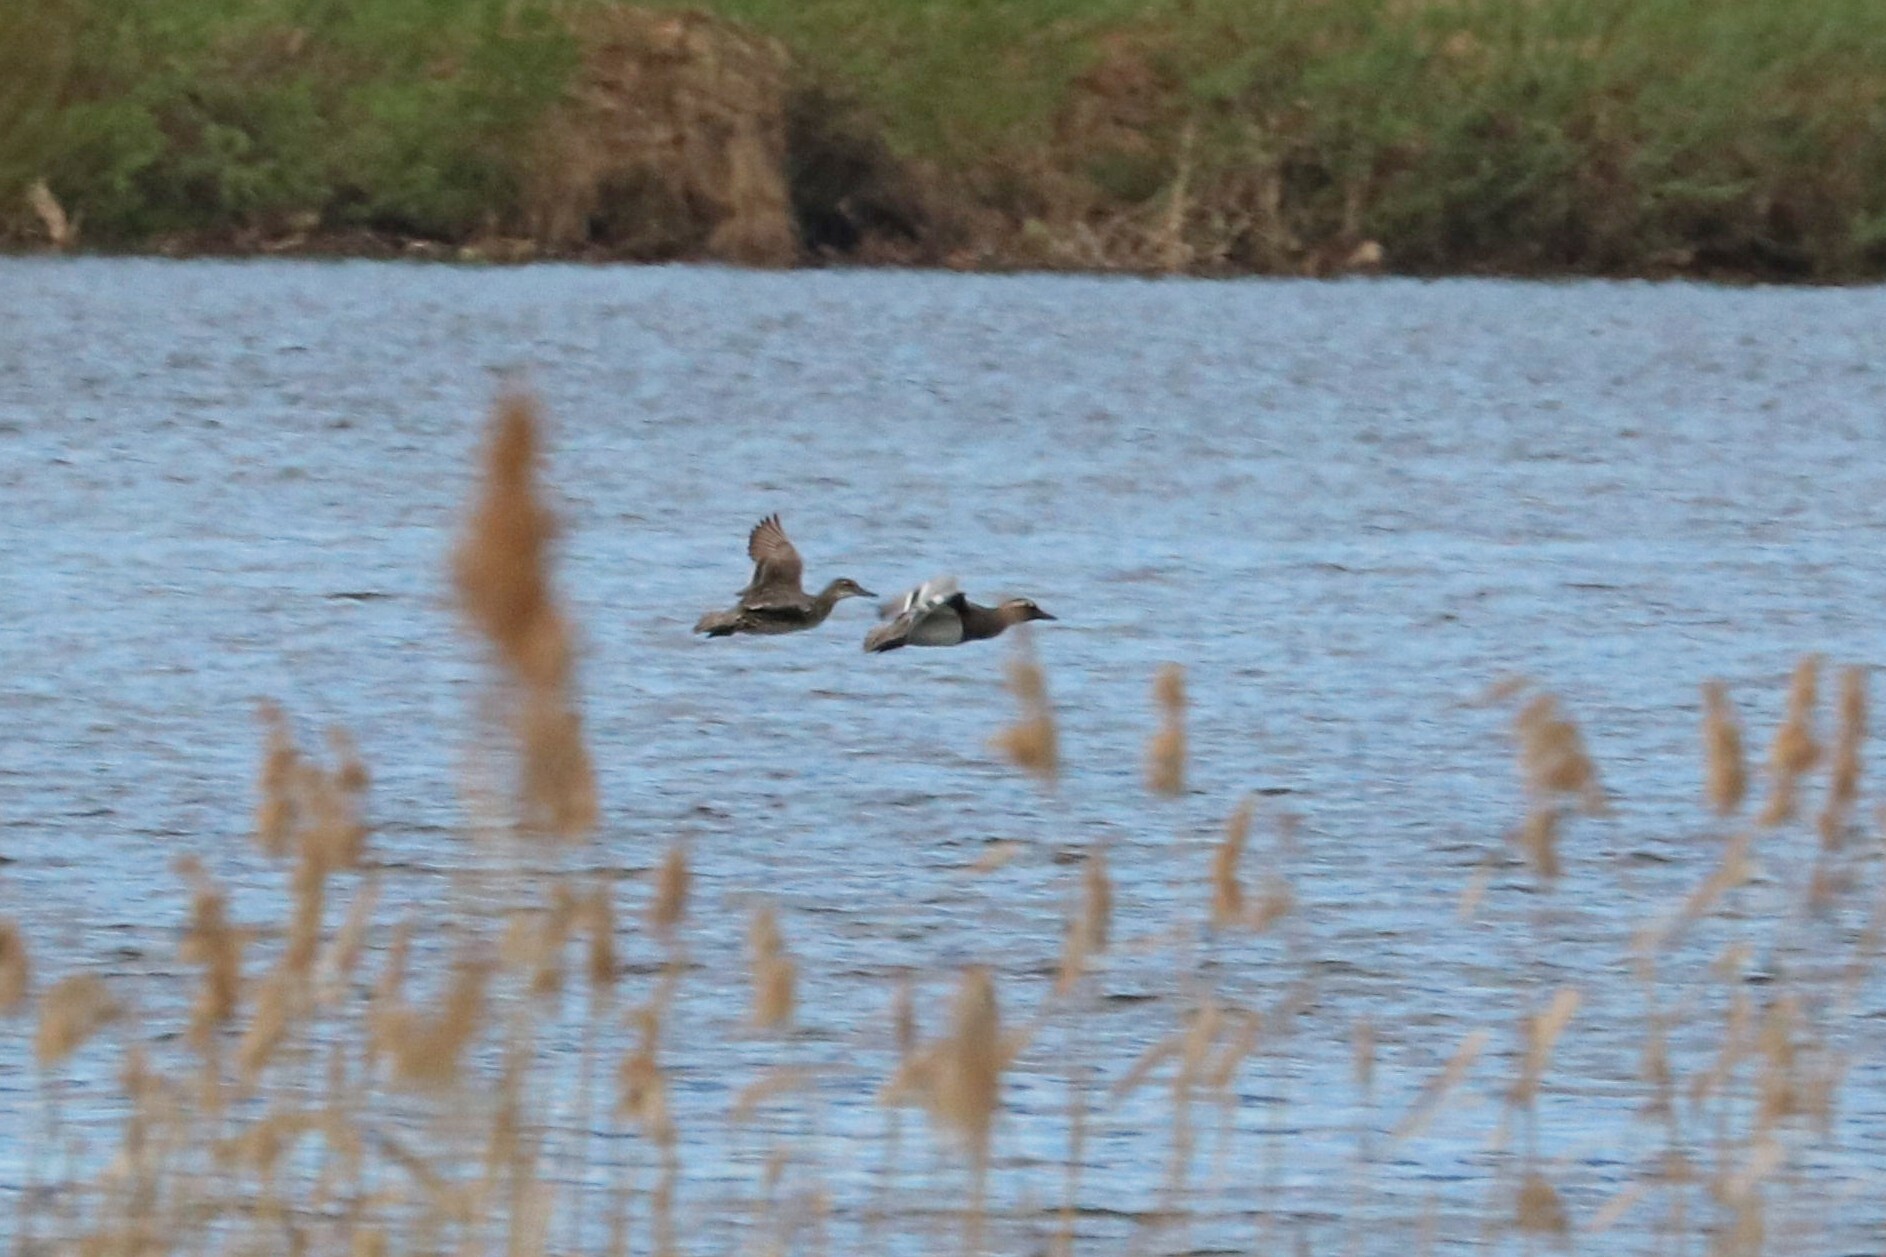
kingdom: Animalia
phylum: Chordata
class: Aves
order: Anseriformes
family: Anatidae
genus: Spatula
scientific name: Spatula querquedula
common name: Garganey
